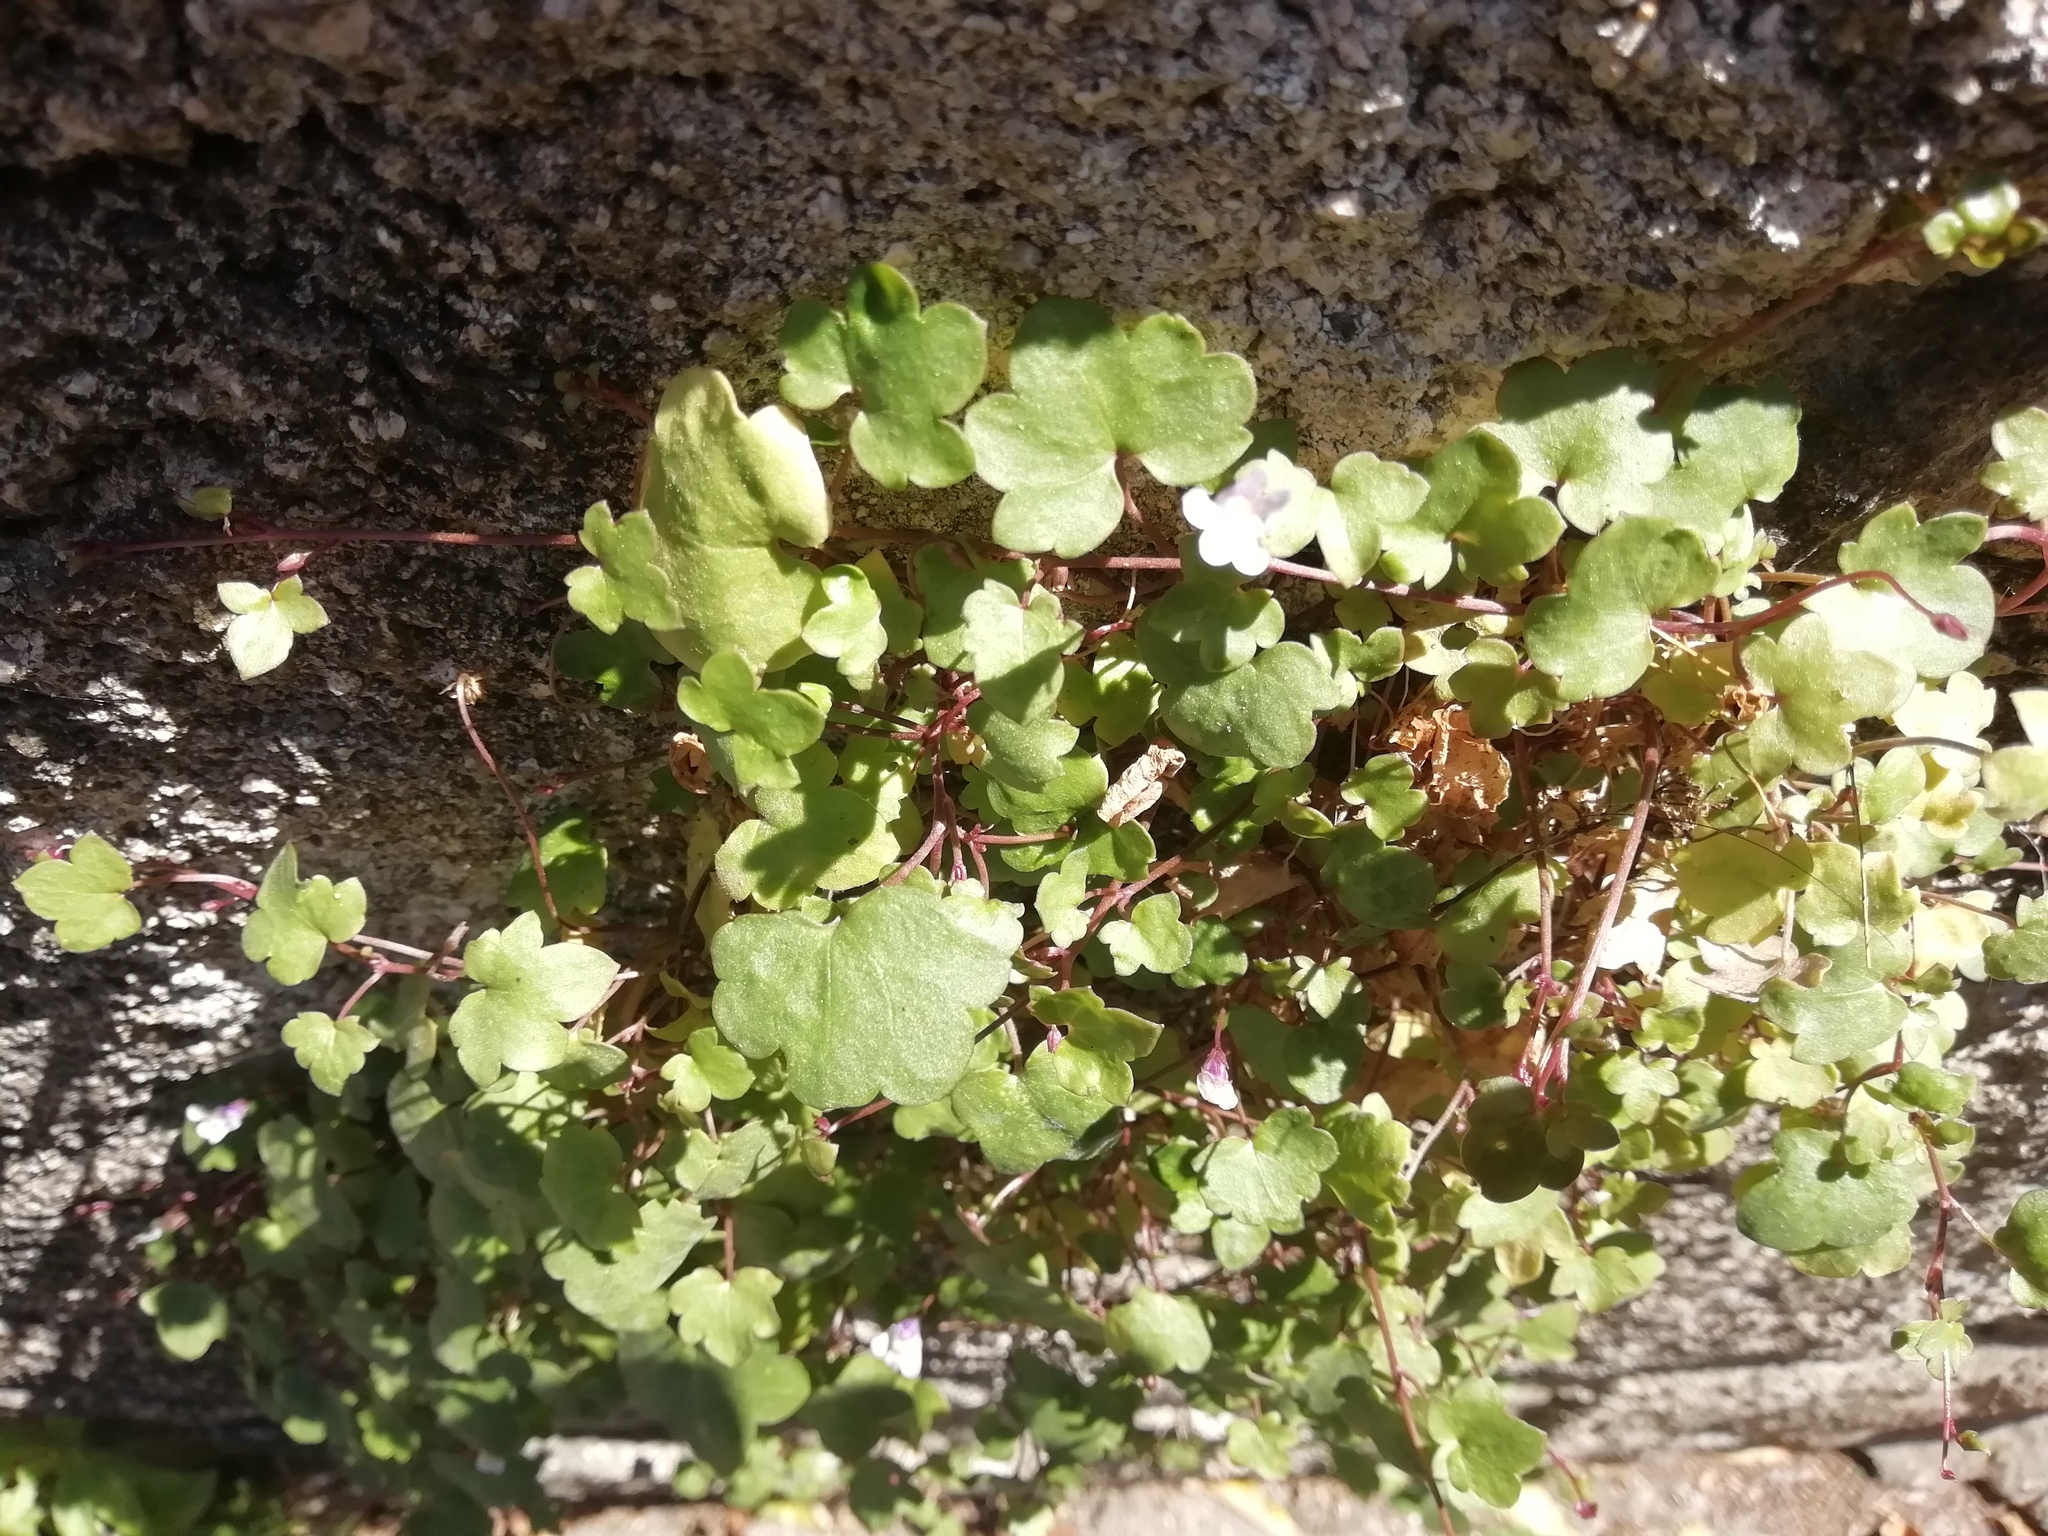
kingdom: Plantae
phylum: Tracheophyta
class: Magnoliopsida
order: Lamiales
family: Plantaginaceae
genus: Cymbalaria
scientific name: Cymbalaria muralis
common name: Ivy-leaved toadflax
